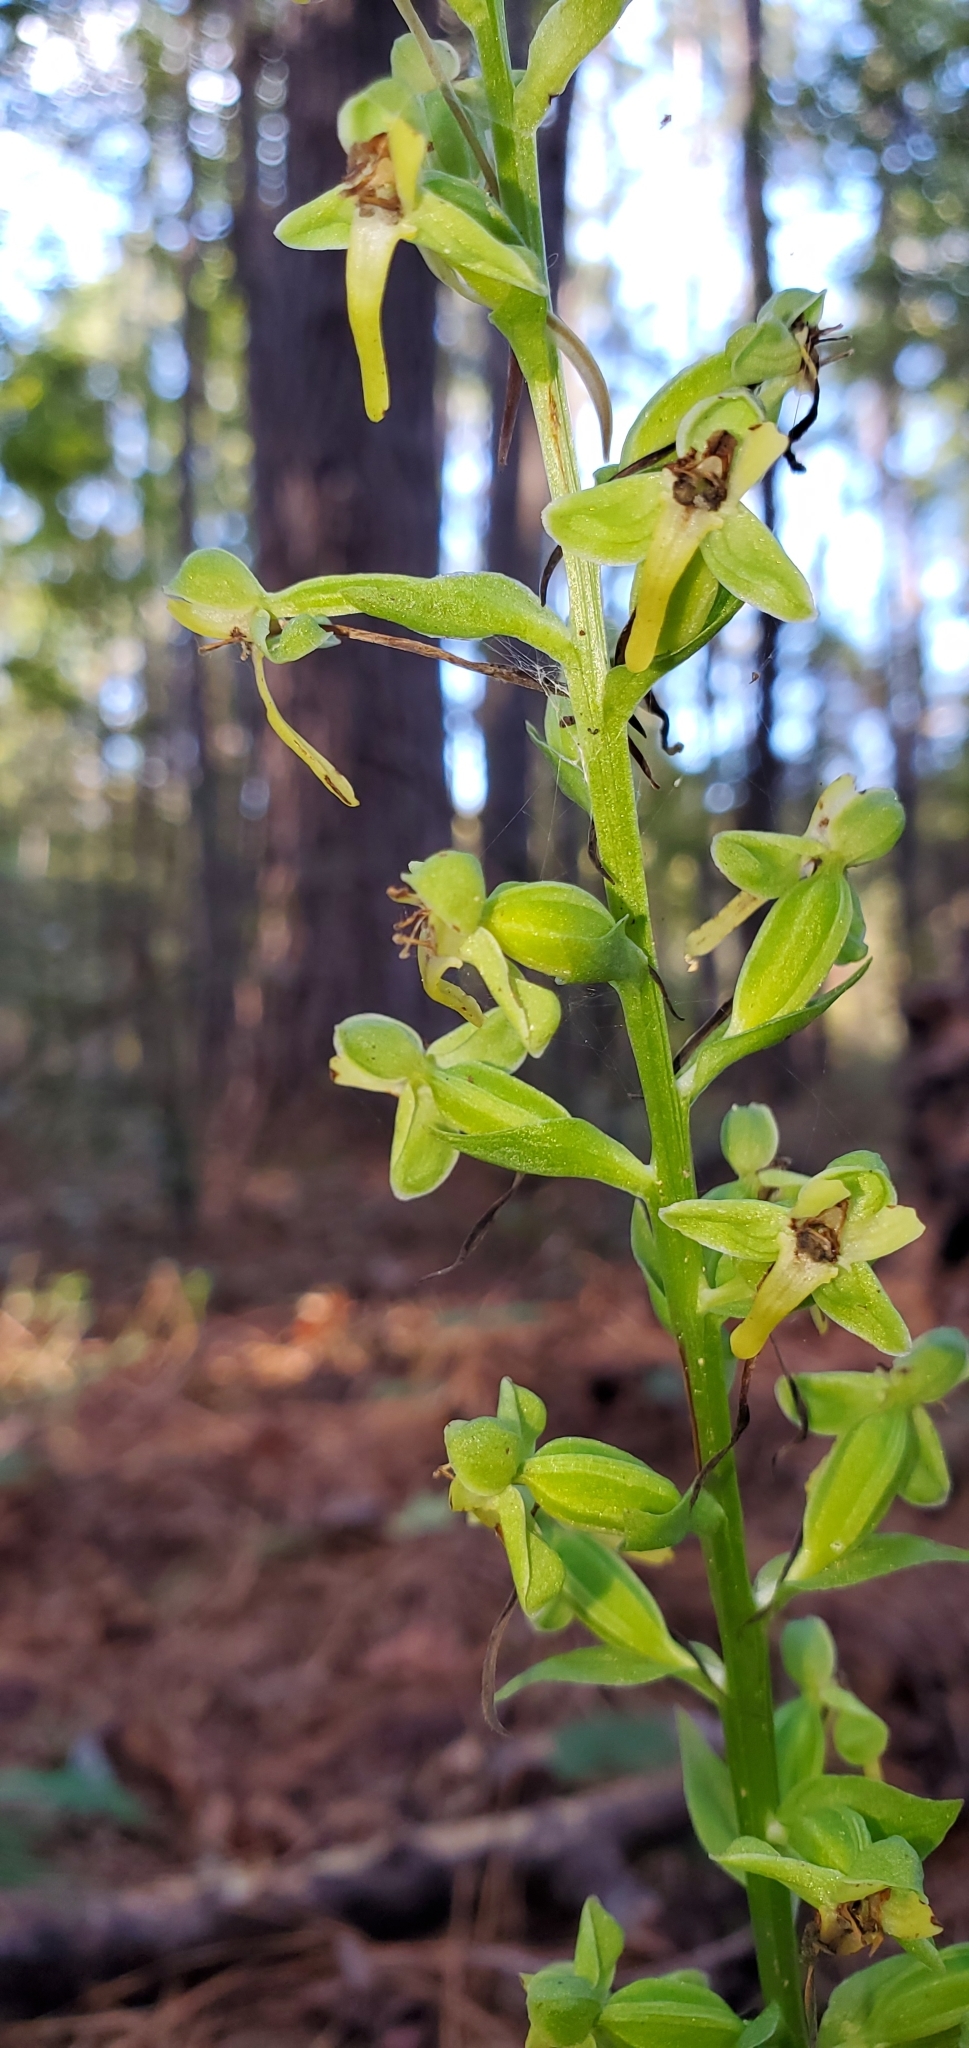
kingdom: Plantae
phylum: Tracheophyta
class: Liliopsida
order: Asparagales
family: Orchidaceae
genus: Habenaria
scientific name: Habenaria floribunda
